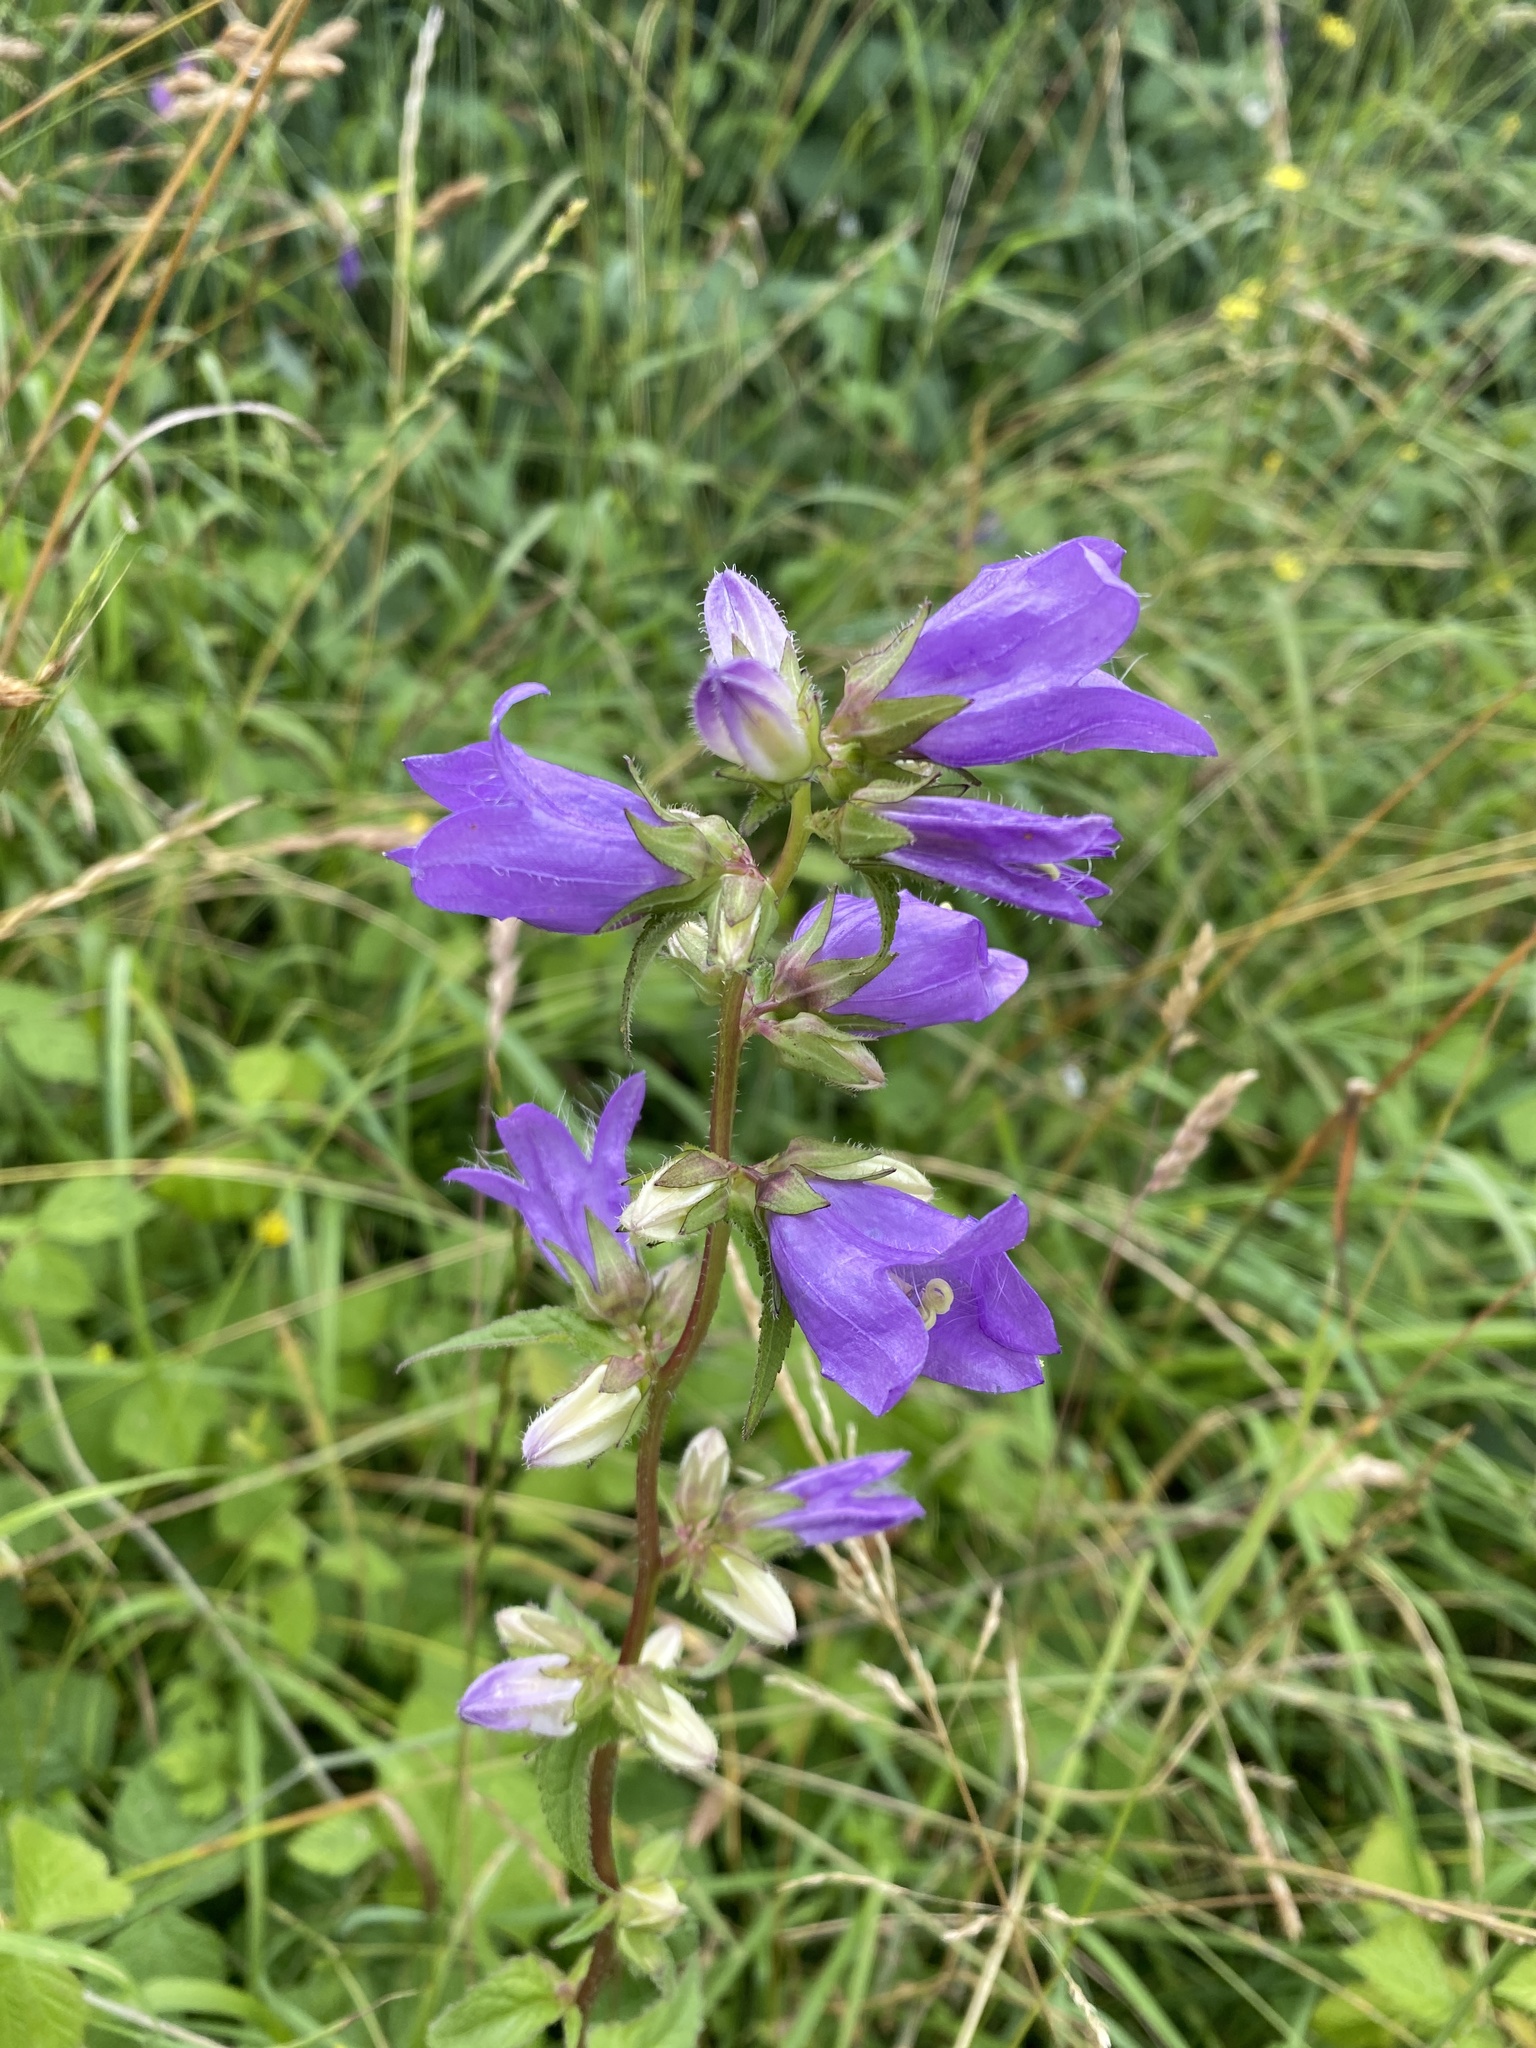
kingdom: Plantae
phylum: Tracheophyta
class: Magnoliopsida
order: Asterales
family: Campanulaceae
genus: Campanula
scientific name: Campanula trachelium
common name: Nettle-leaved bellflower
